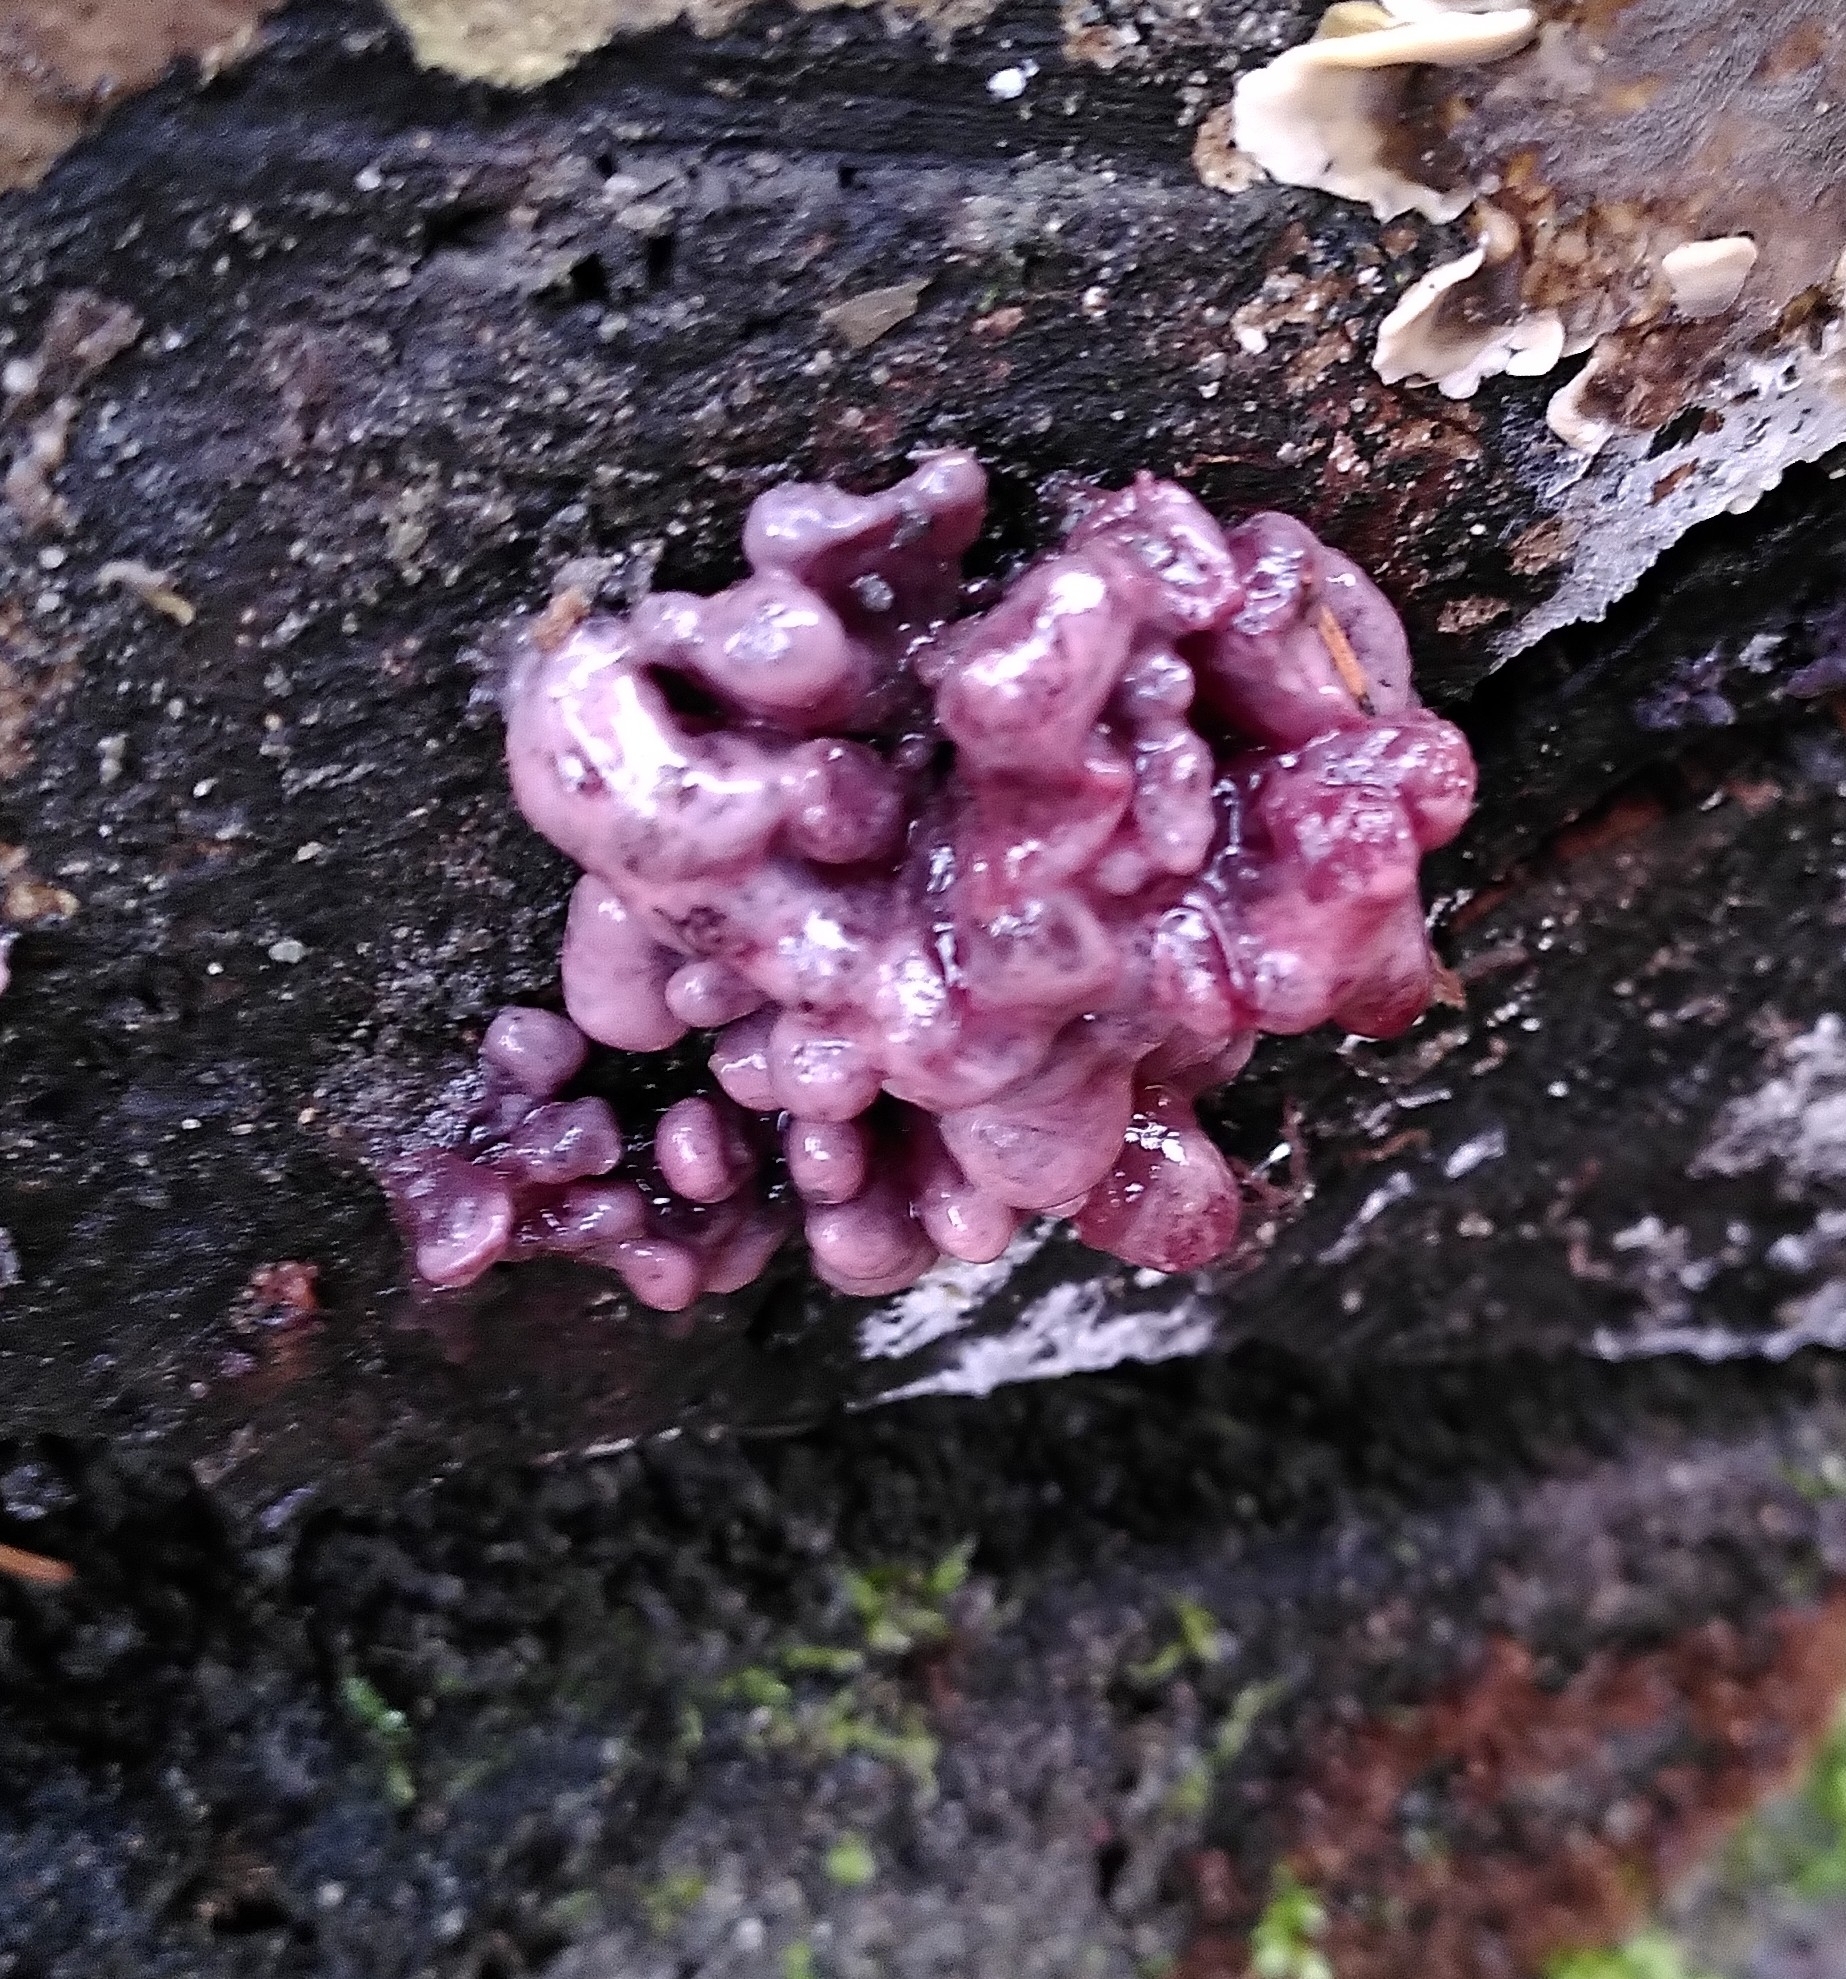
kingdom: Fungi
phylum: Ascomycota
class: Leotiomycetes
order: Helotiales
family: Gelatinodiscaceae
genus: Ascocoryne
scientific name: Ascocoryne sarcoides
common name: Purple jellydisc
